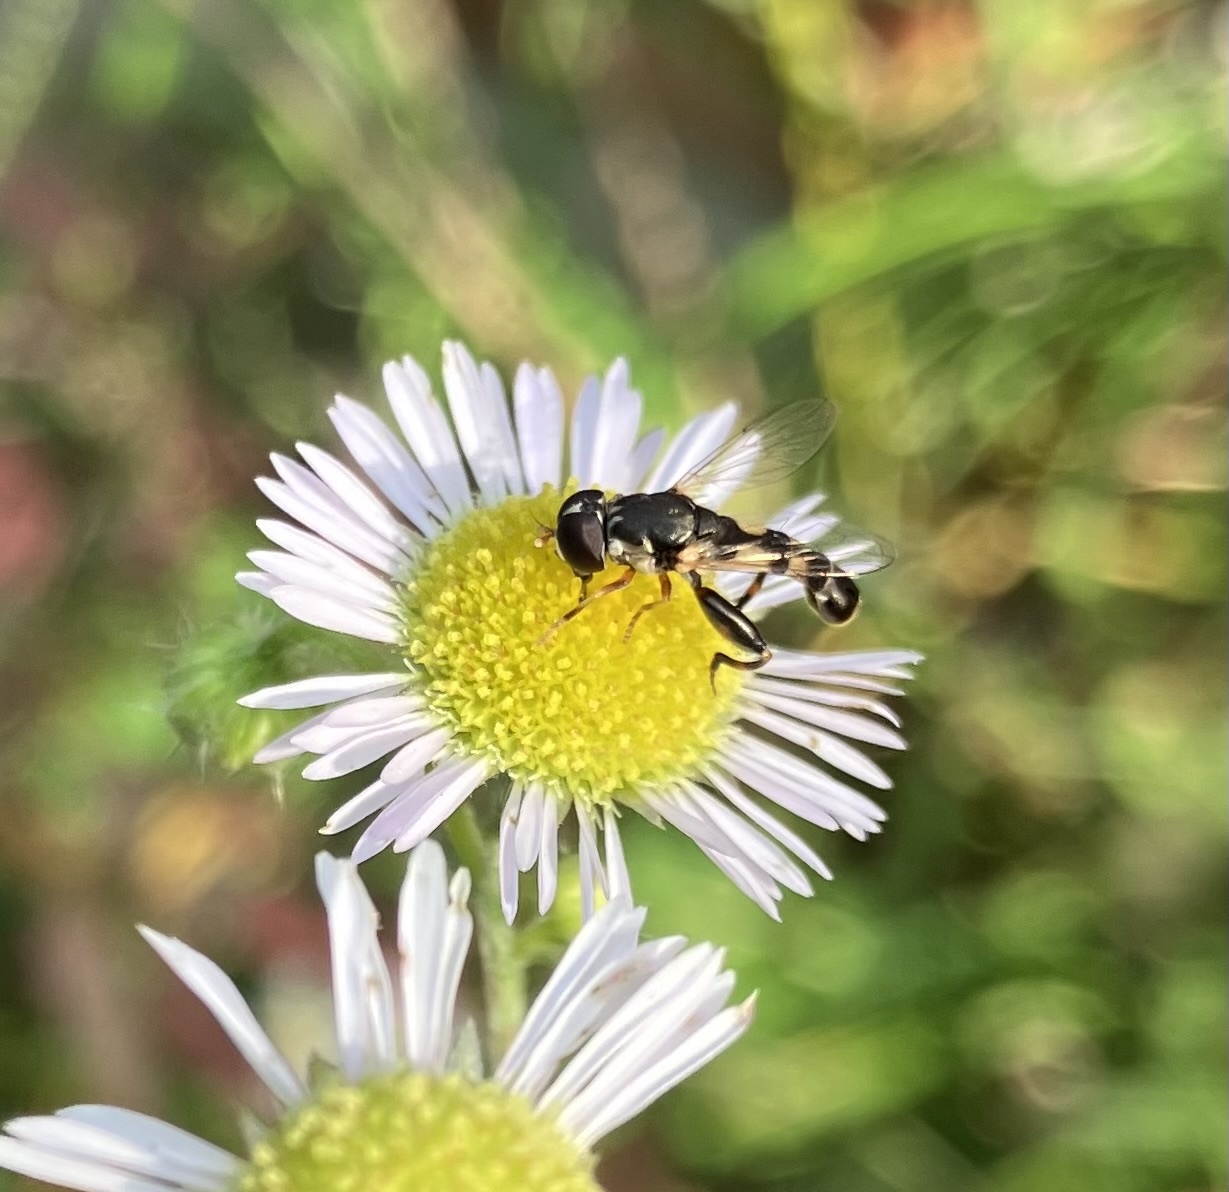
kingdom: Animalia
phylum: Arthropoda
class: Insecta
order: Diptera
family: Syrphidae
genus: Syritta
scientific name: Syritta pipiens
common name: Hover fly
